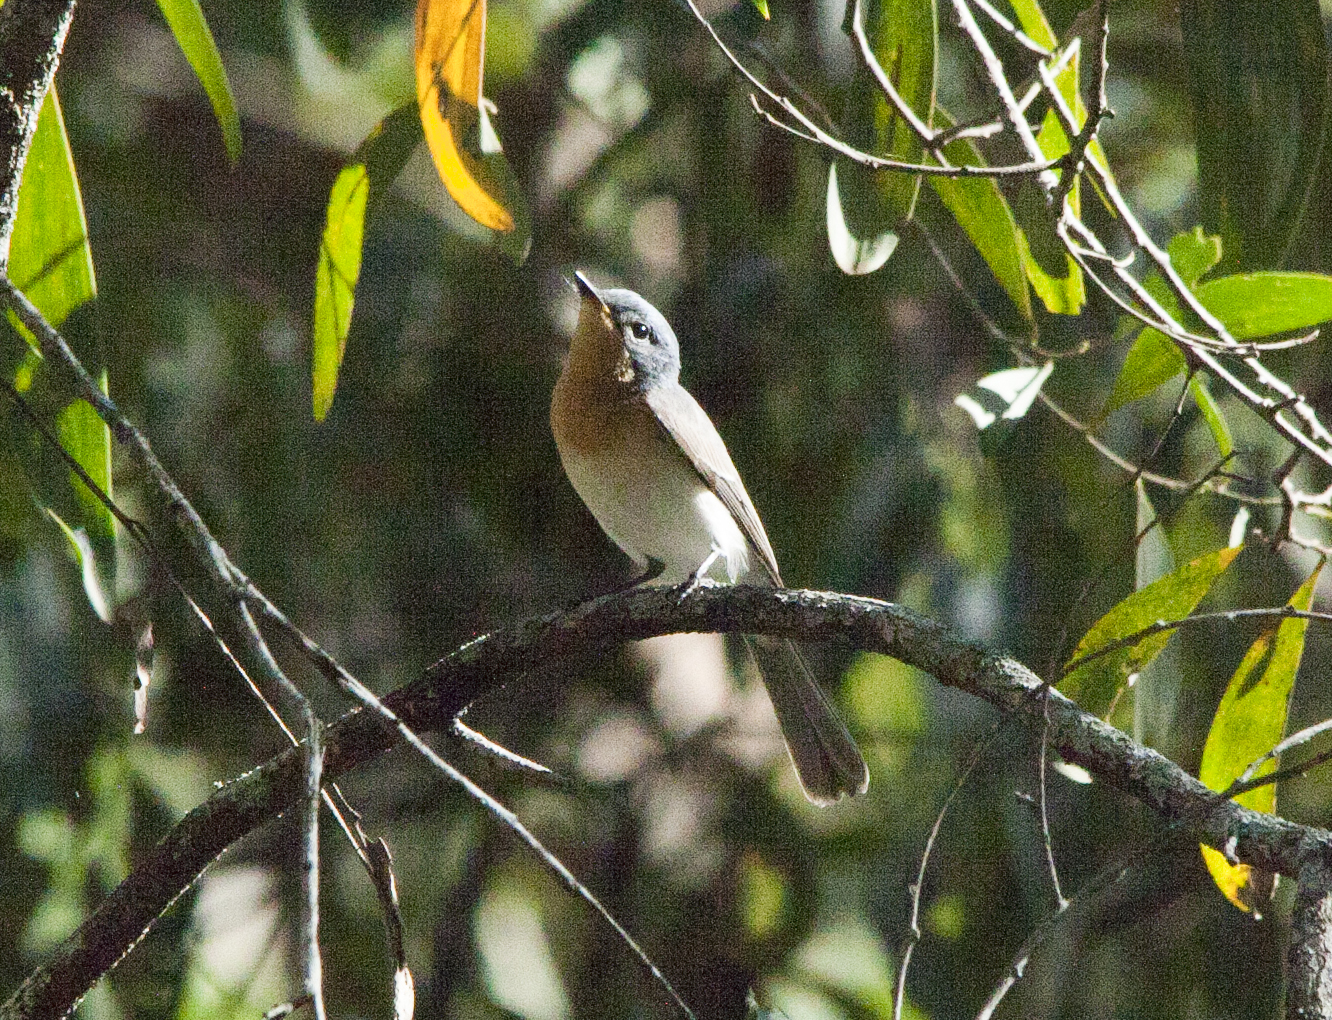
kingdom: Animalia
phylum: Chordata
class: Aves
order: Passeriformes
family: Monarchidae
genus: Myiagra
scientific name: Myiagra rubecula
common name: Leaden flycatcher
